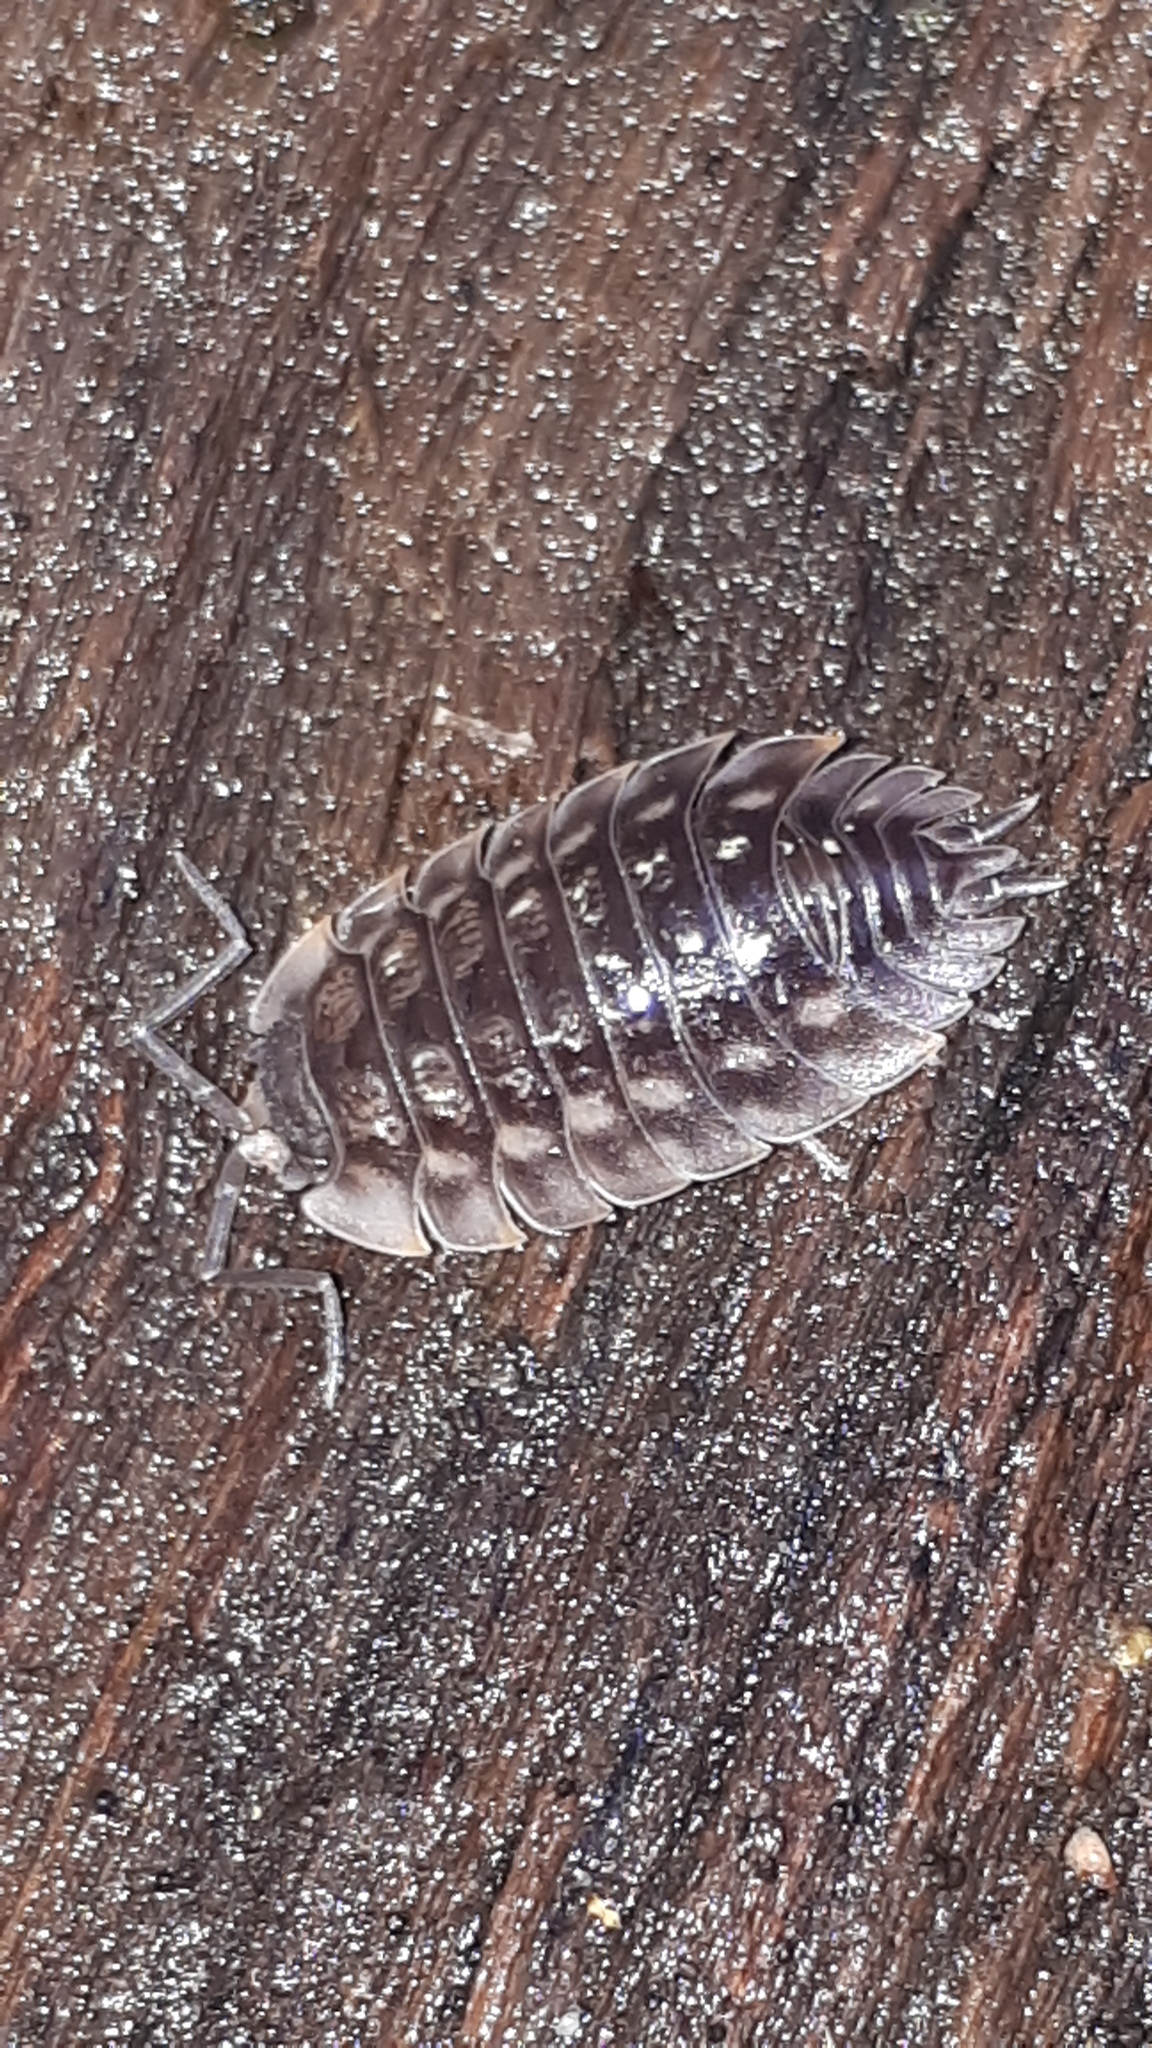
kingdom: Animalia
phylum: Arthropoda
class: Malacostraca
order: Isopoda
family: Oniscidae
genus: Oniscus
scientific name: Oniscus asellus
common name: Common shiny woodlouse
